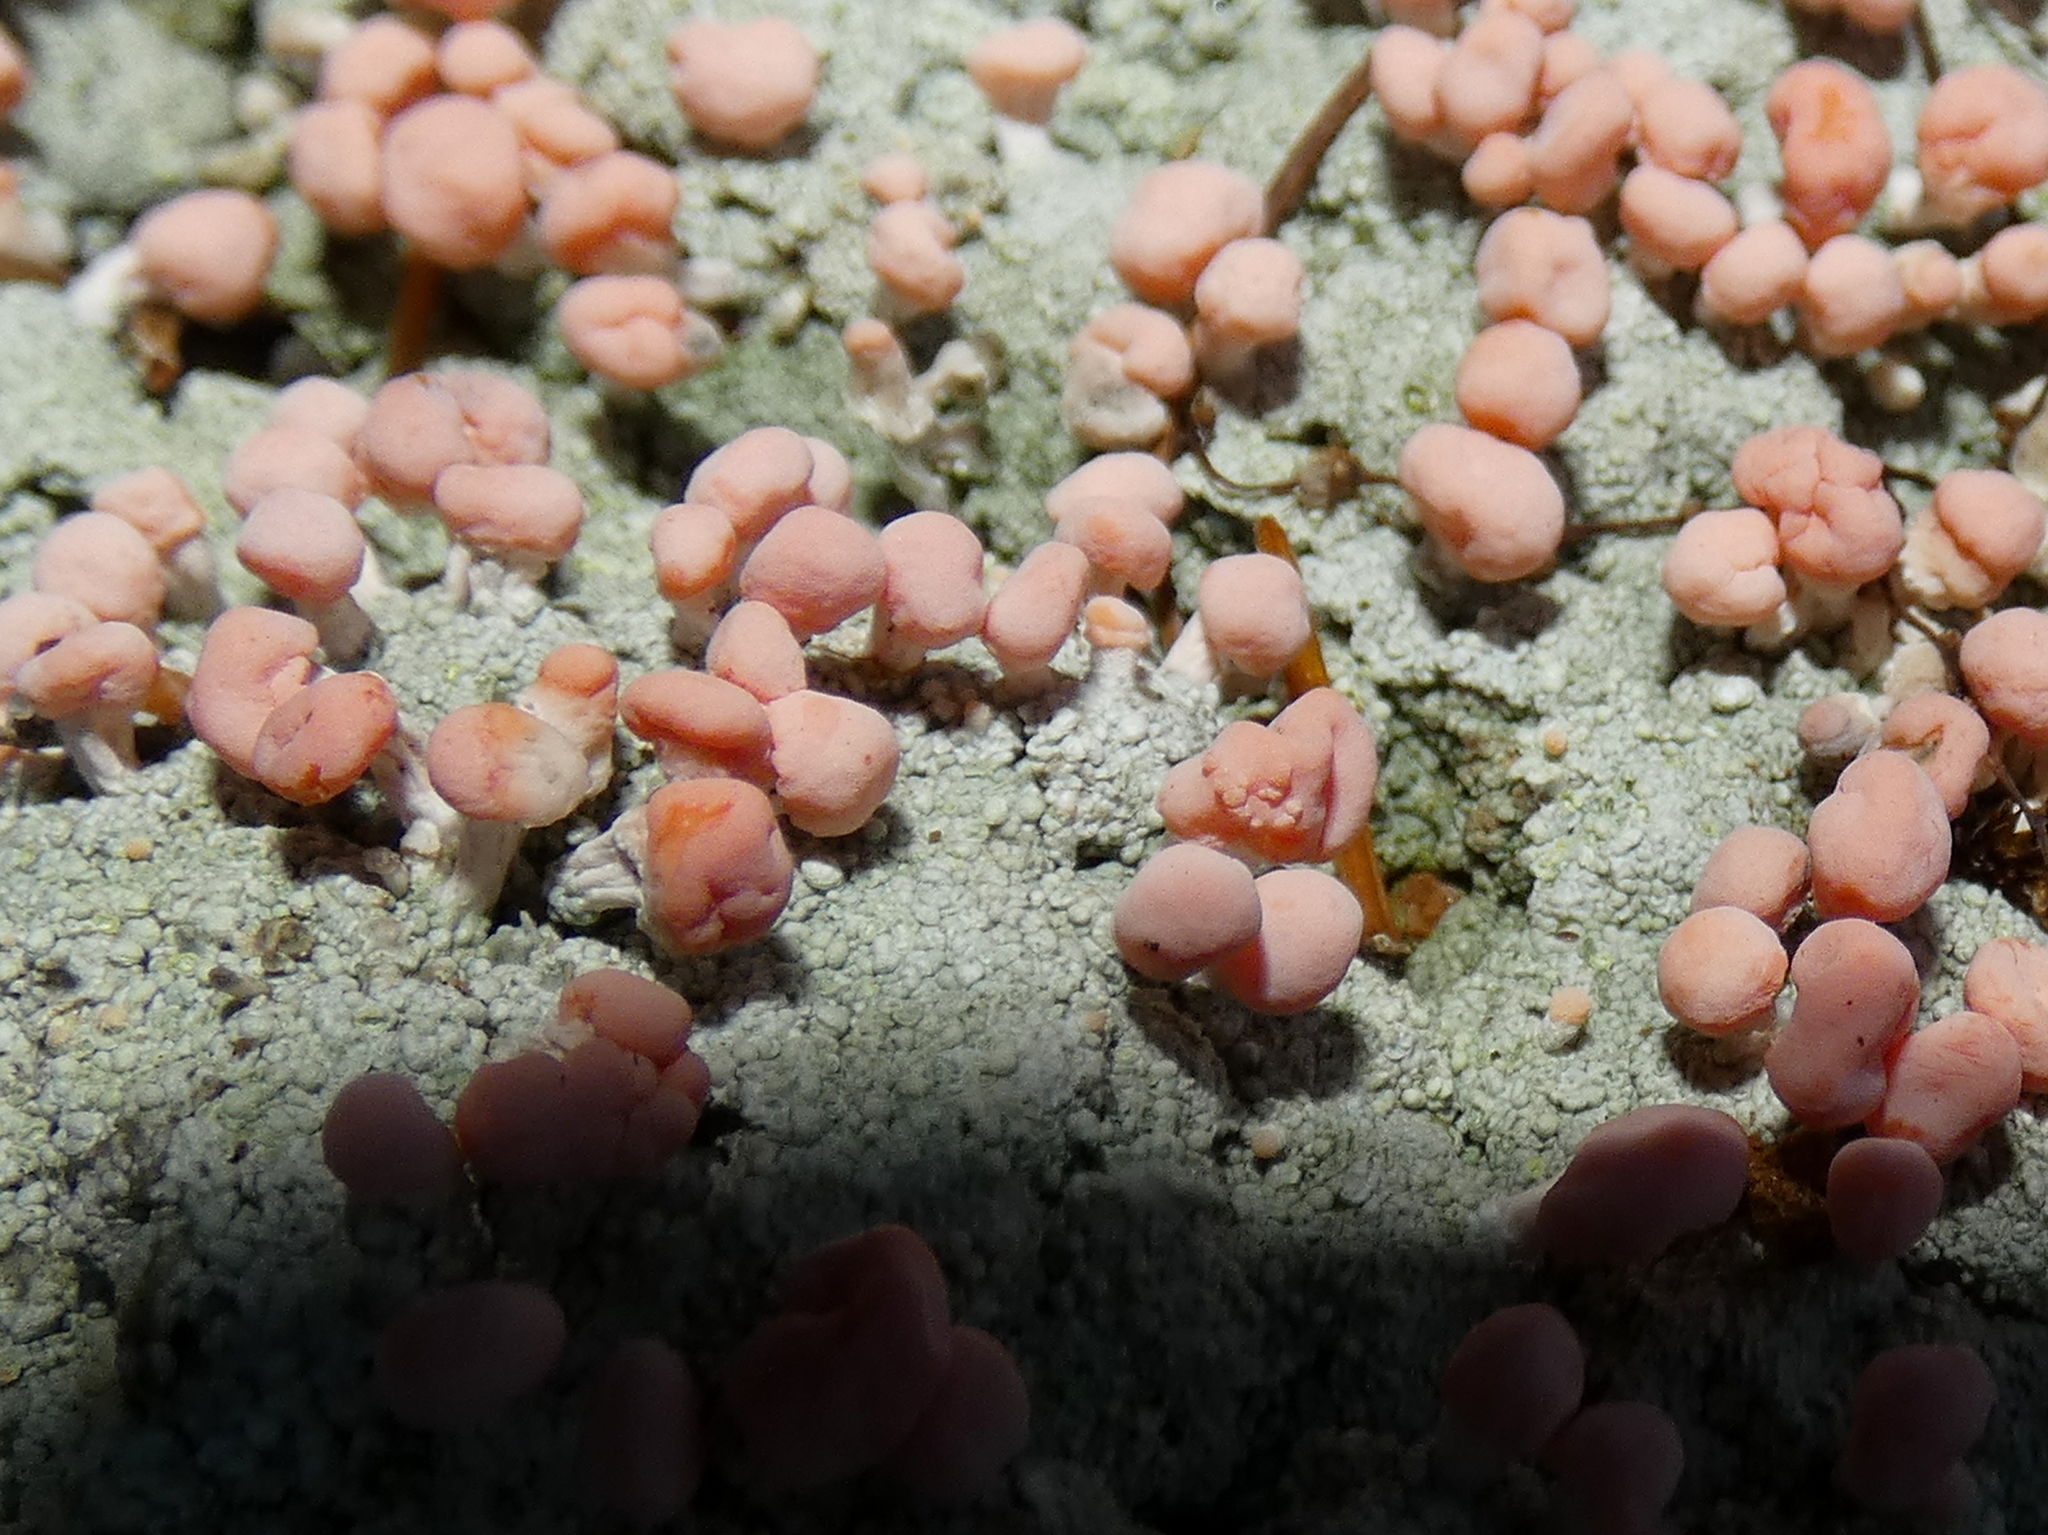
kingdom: Fungi
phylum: Ascomycota
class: Lecanoromycetes
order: Pertusariales
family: Icmadophilaceae
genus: Dibaeis
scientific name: Dibaeis baeomyces
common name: Pink earth lichen
